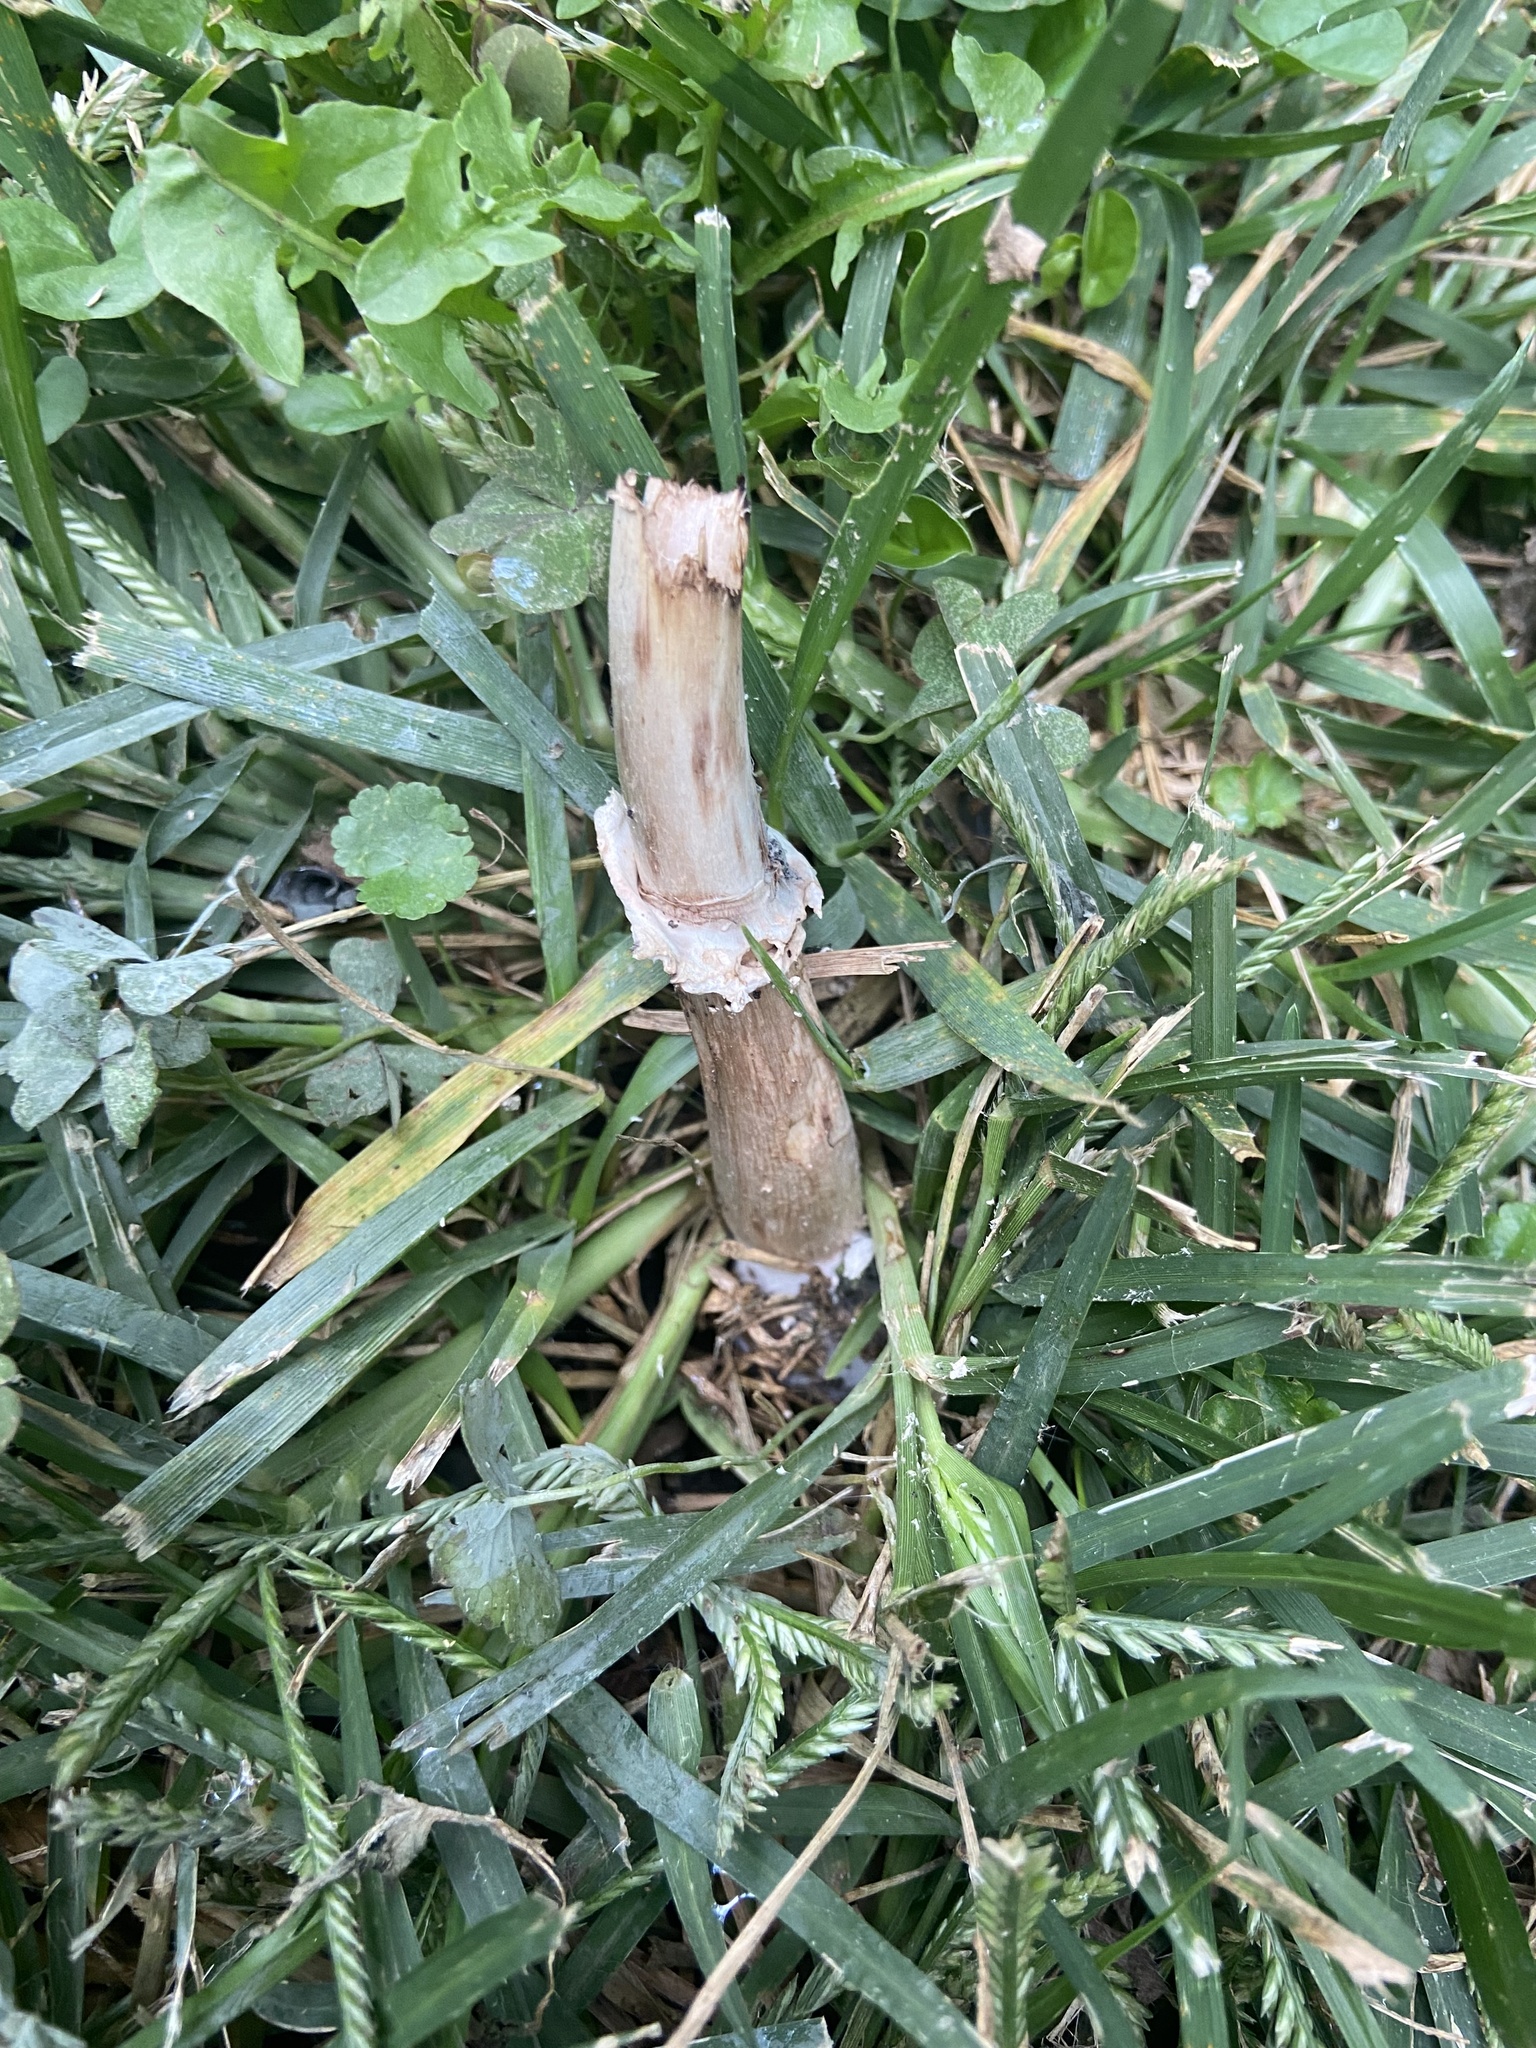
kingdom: Fungi
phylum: Basidiomycota
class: Agaricomycetes
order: Agaricales
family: Agaricaceae
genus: Chlorophyllum
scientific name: Chlorophyllum molybdites
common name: False parasol
